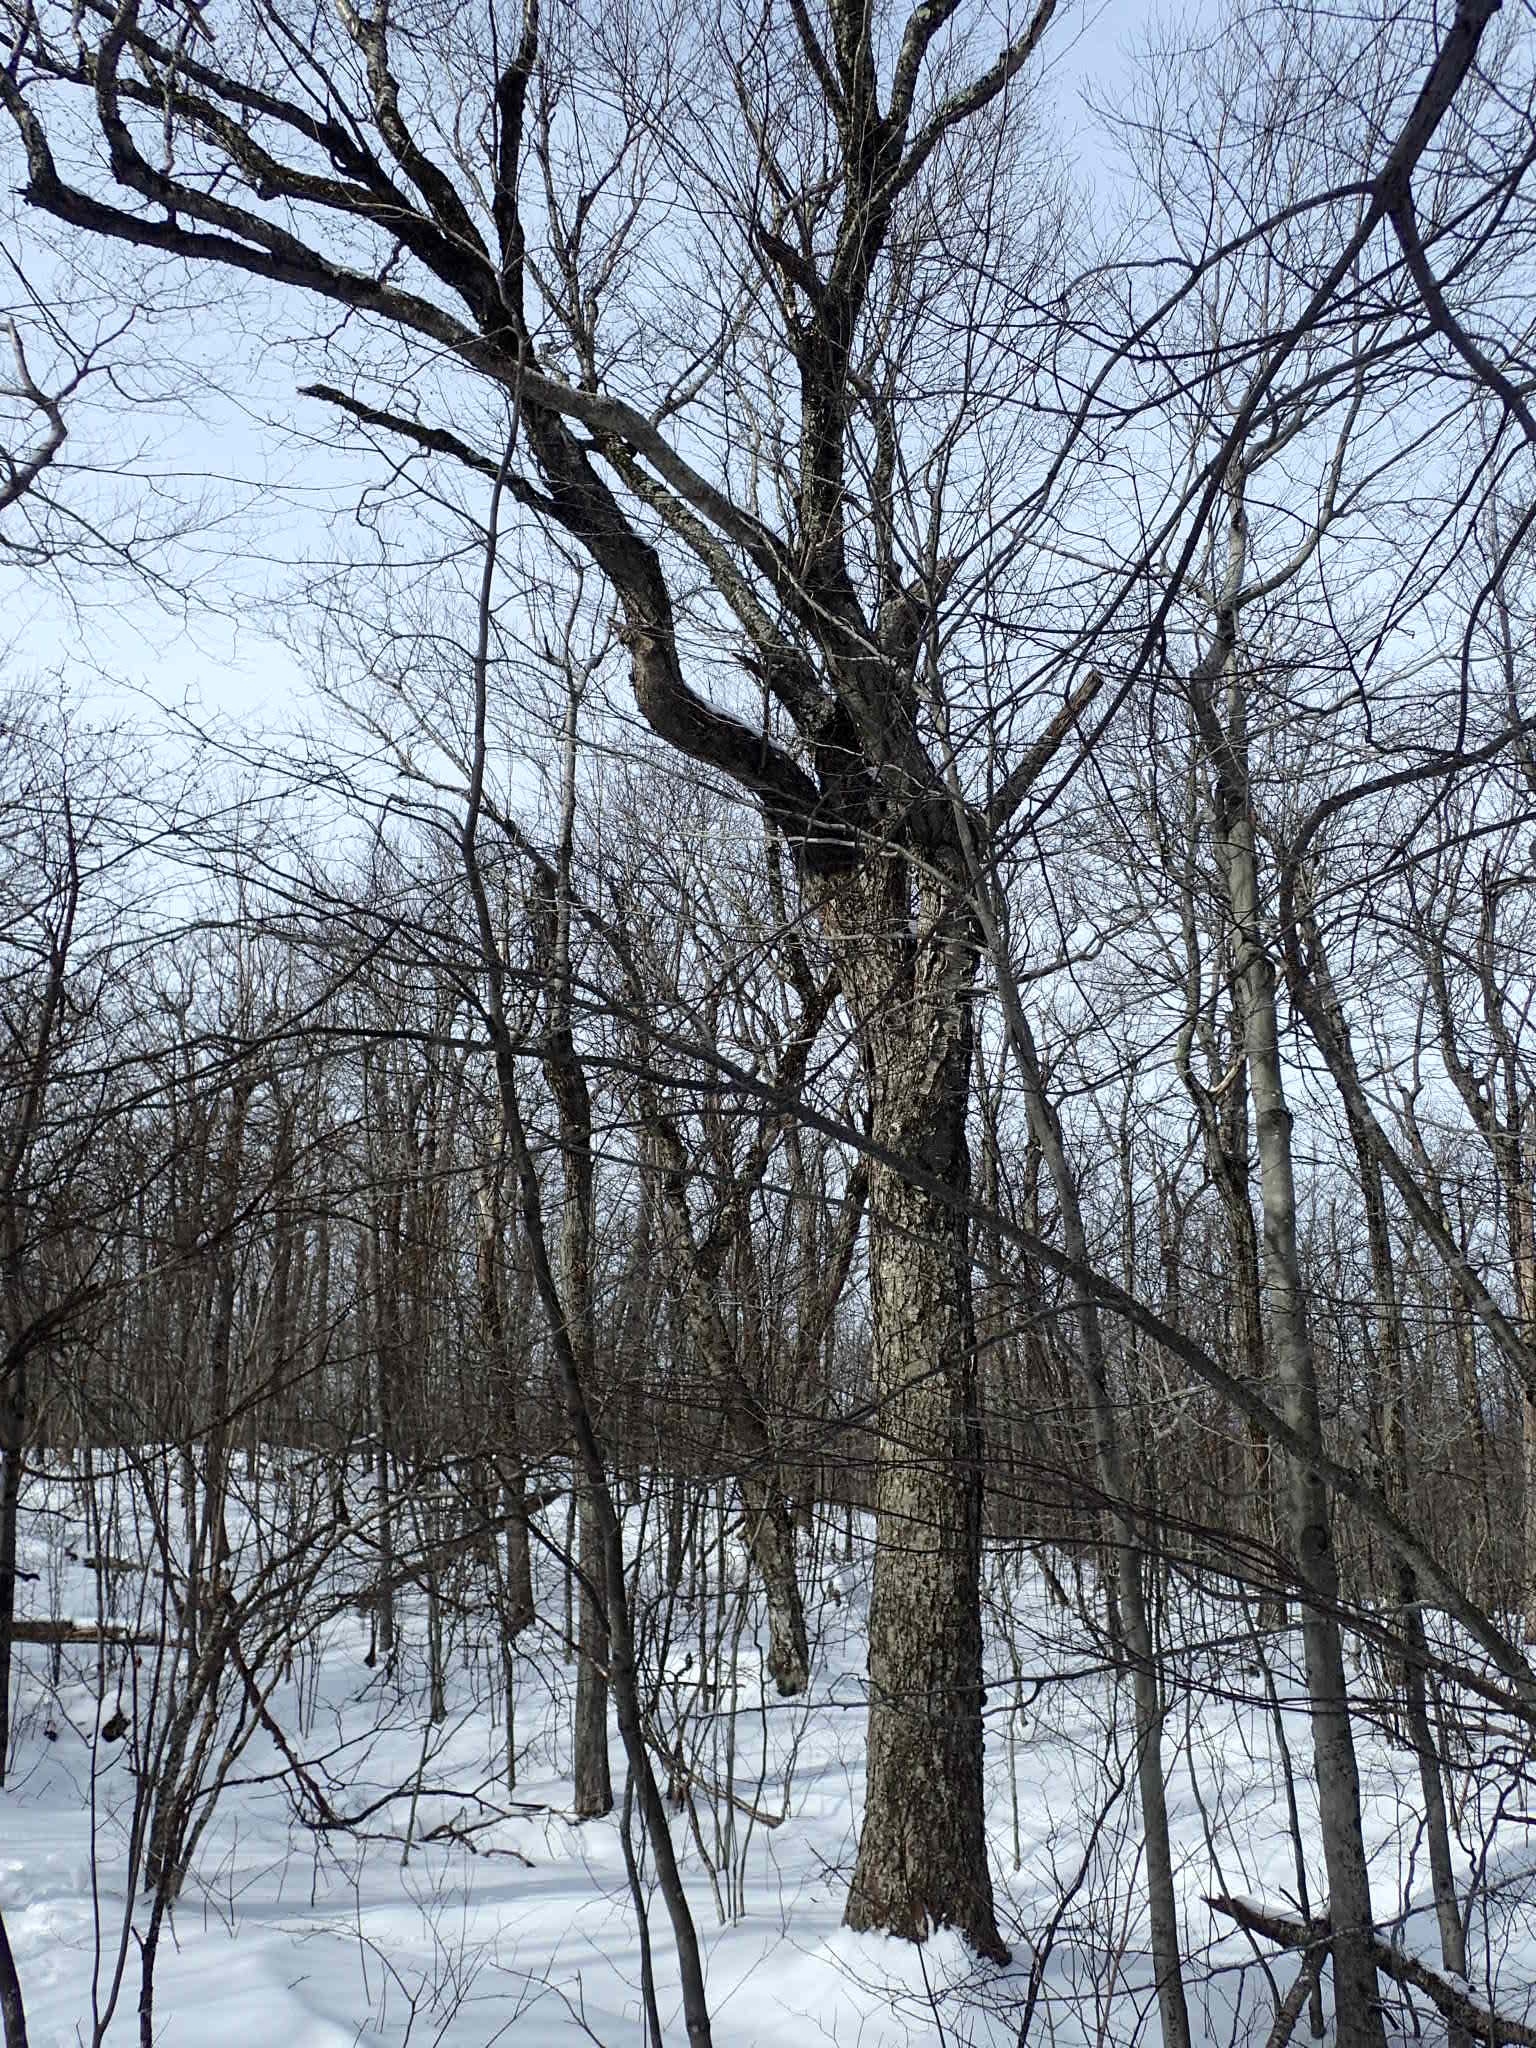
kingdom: Plantae
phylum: Tracheophyta
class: Magnoliopsida
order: Fagales
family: Betulaceae
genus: Betula
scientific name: Betula alleghaniensis
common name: Yellow birch
